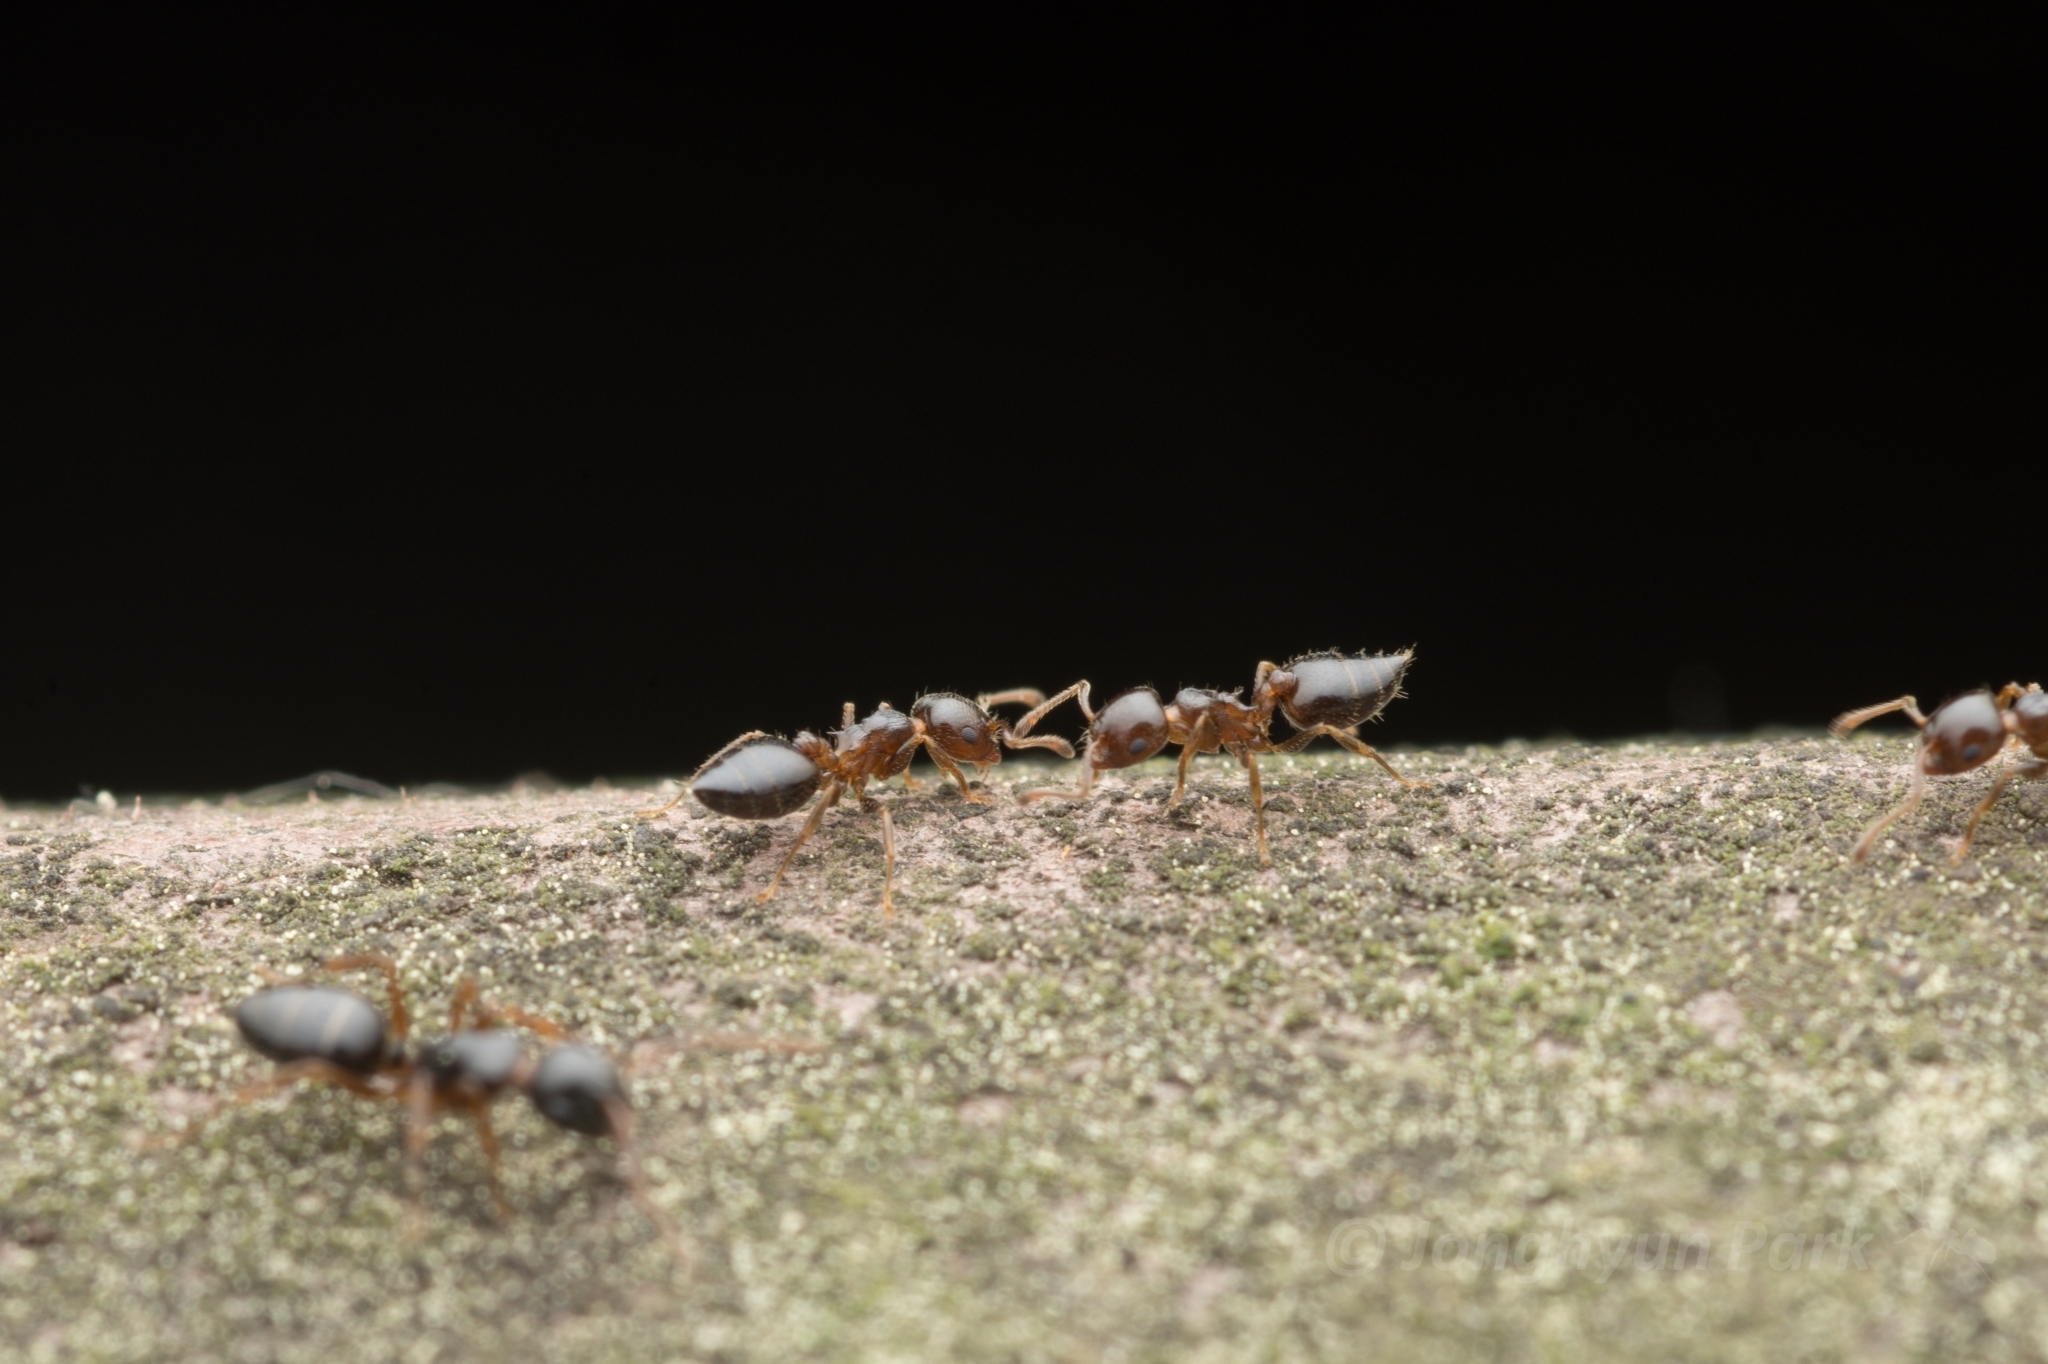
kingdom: Animalia
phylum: Arthropoda
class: Insecta
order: Hymenoptera
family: Formicidae
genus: Camponotus
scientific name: Camponotus itoi
